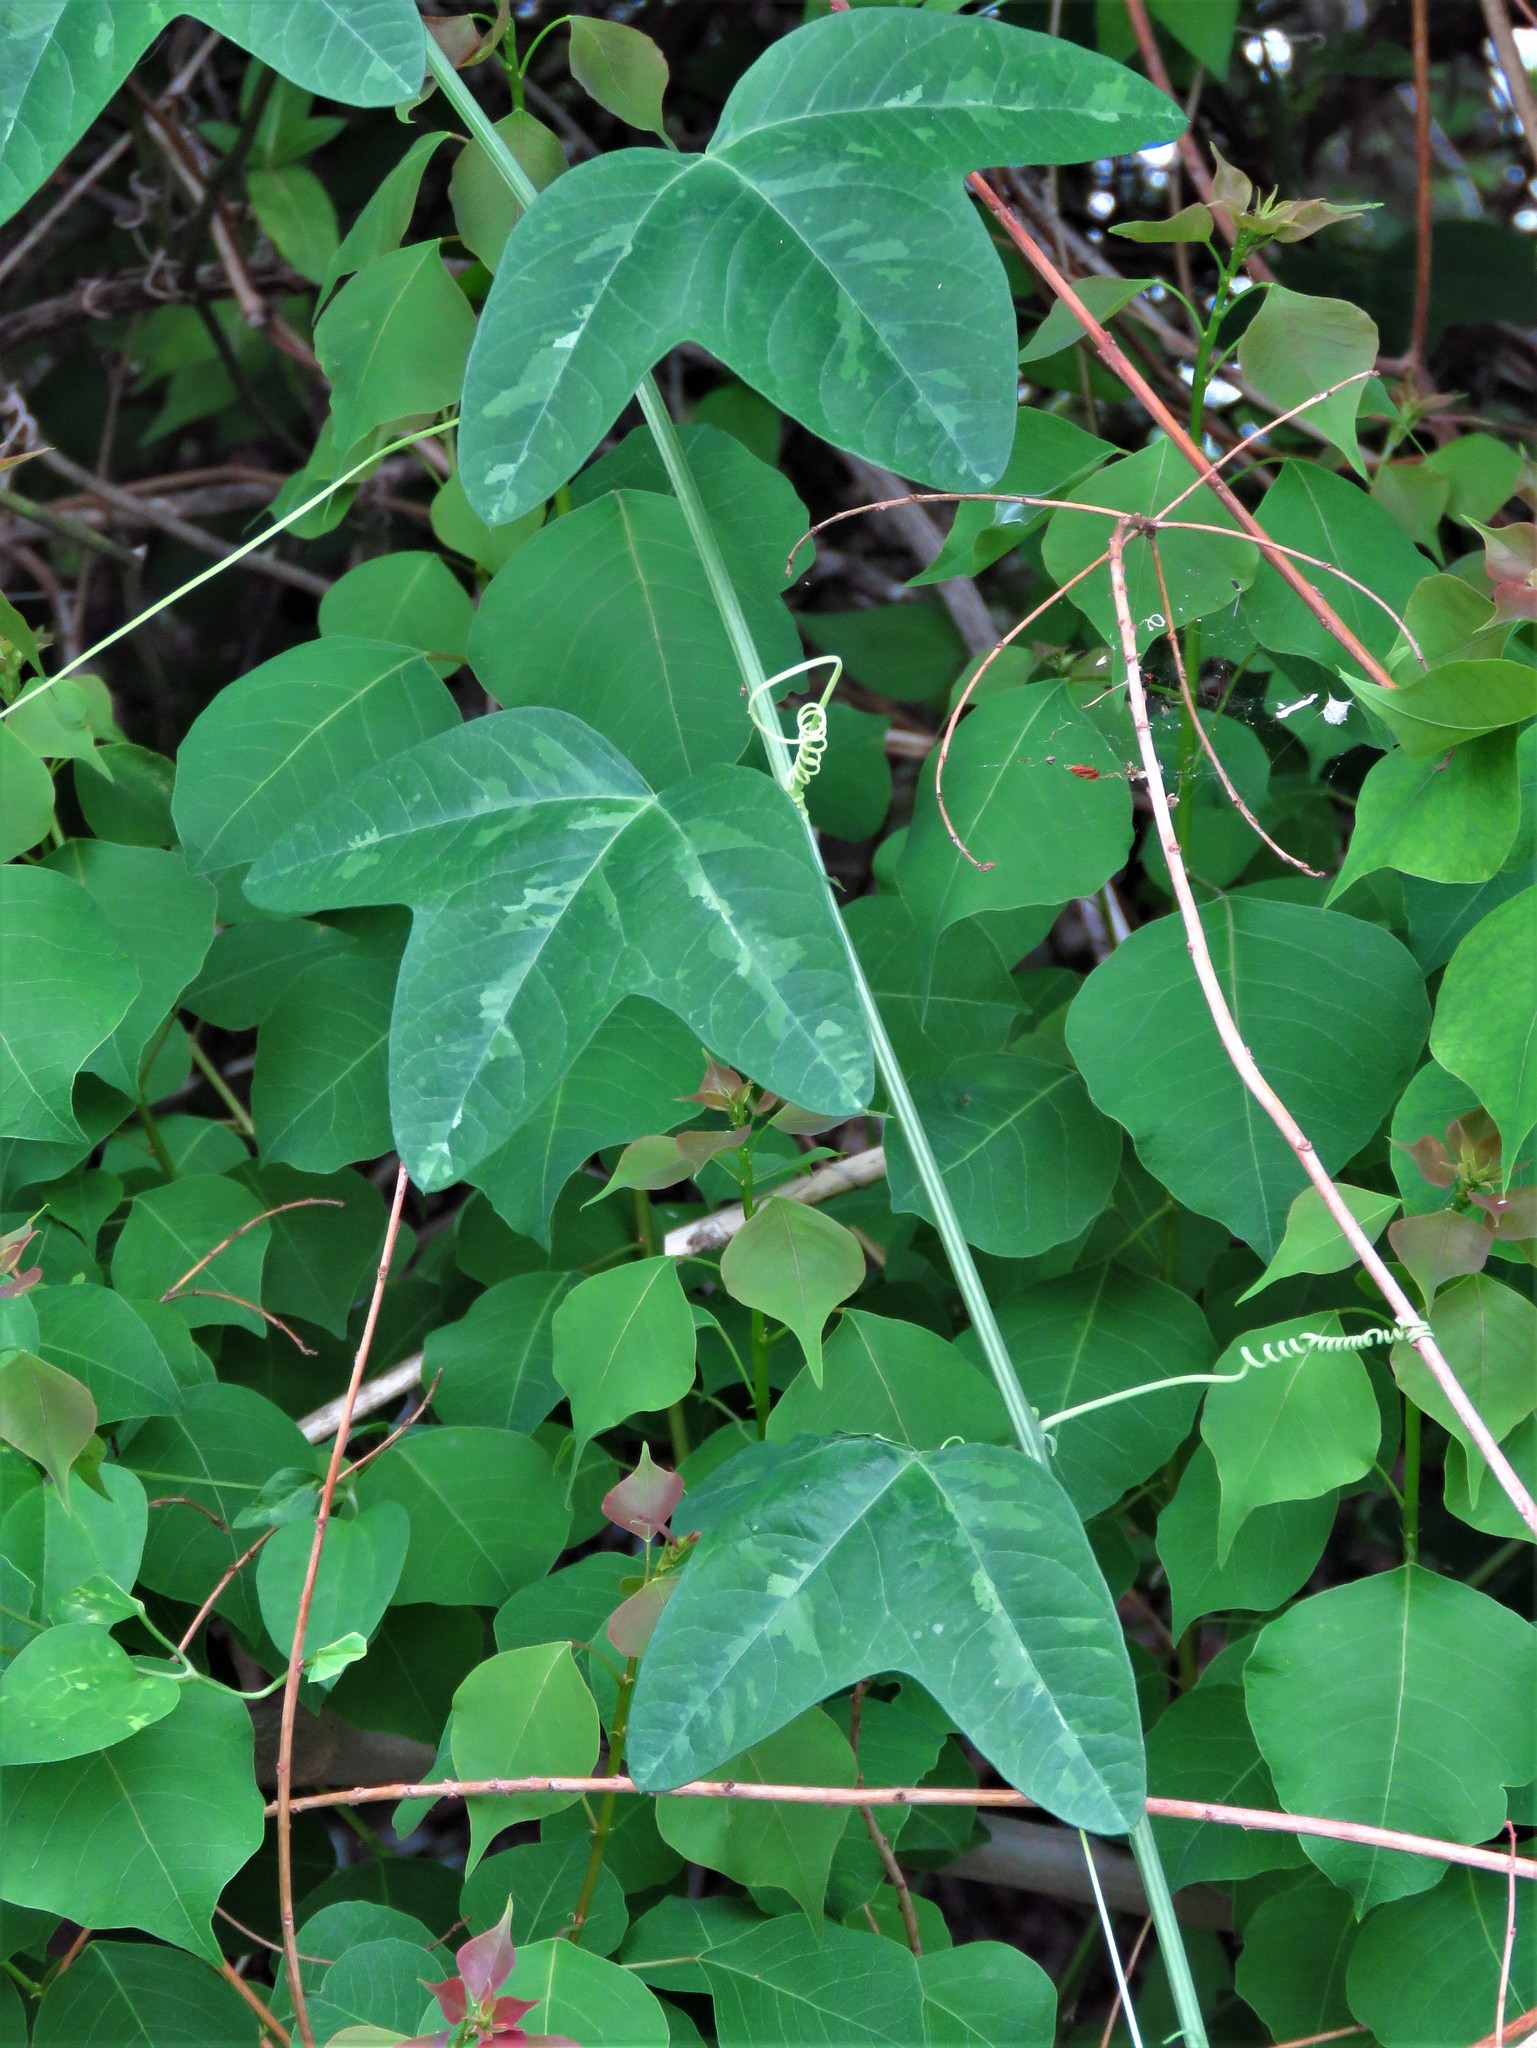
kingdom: Plantae
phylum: Tracheophyta
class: Magnoliopsida
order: Malpighiales
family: Passifloraceae
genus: Passiflora
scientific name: Passiflora lutea
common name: Yellow passionflower
